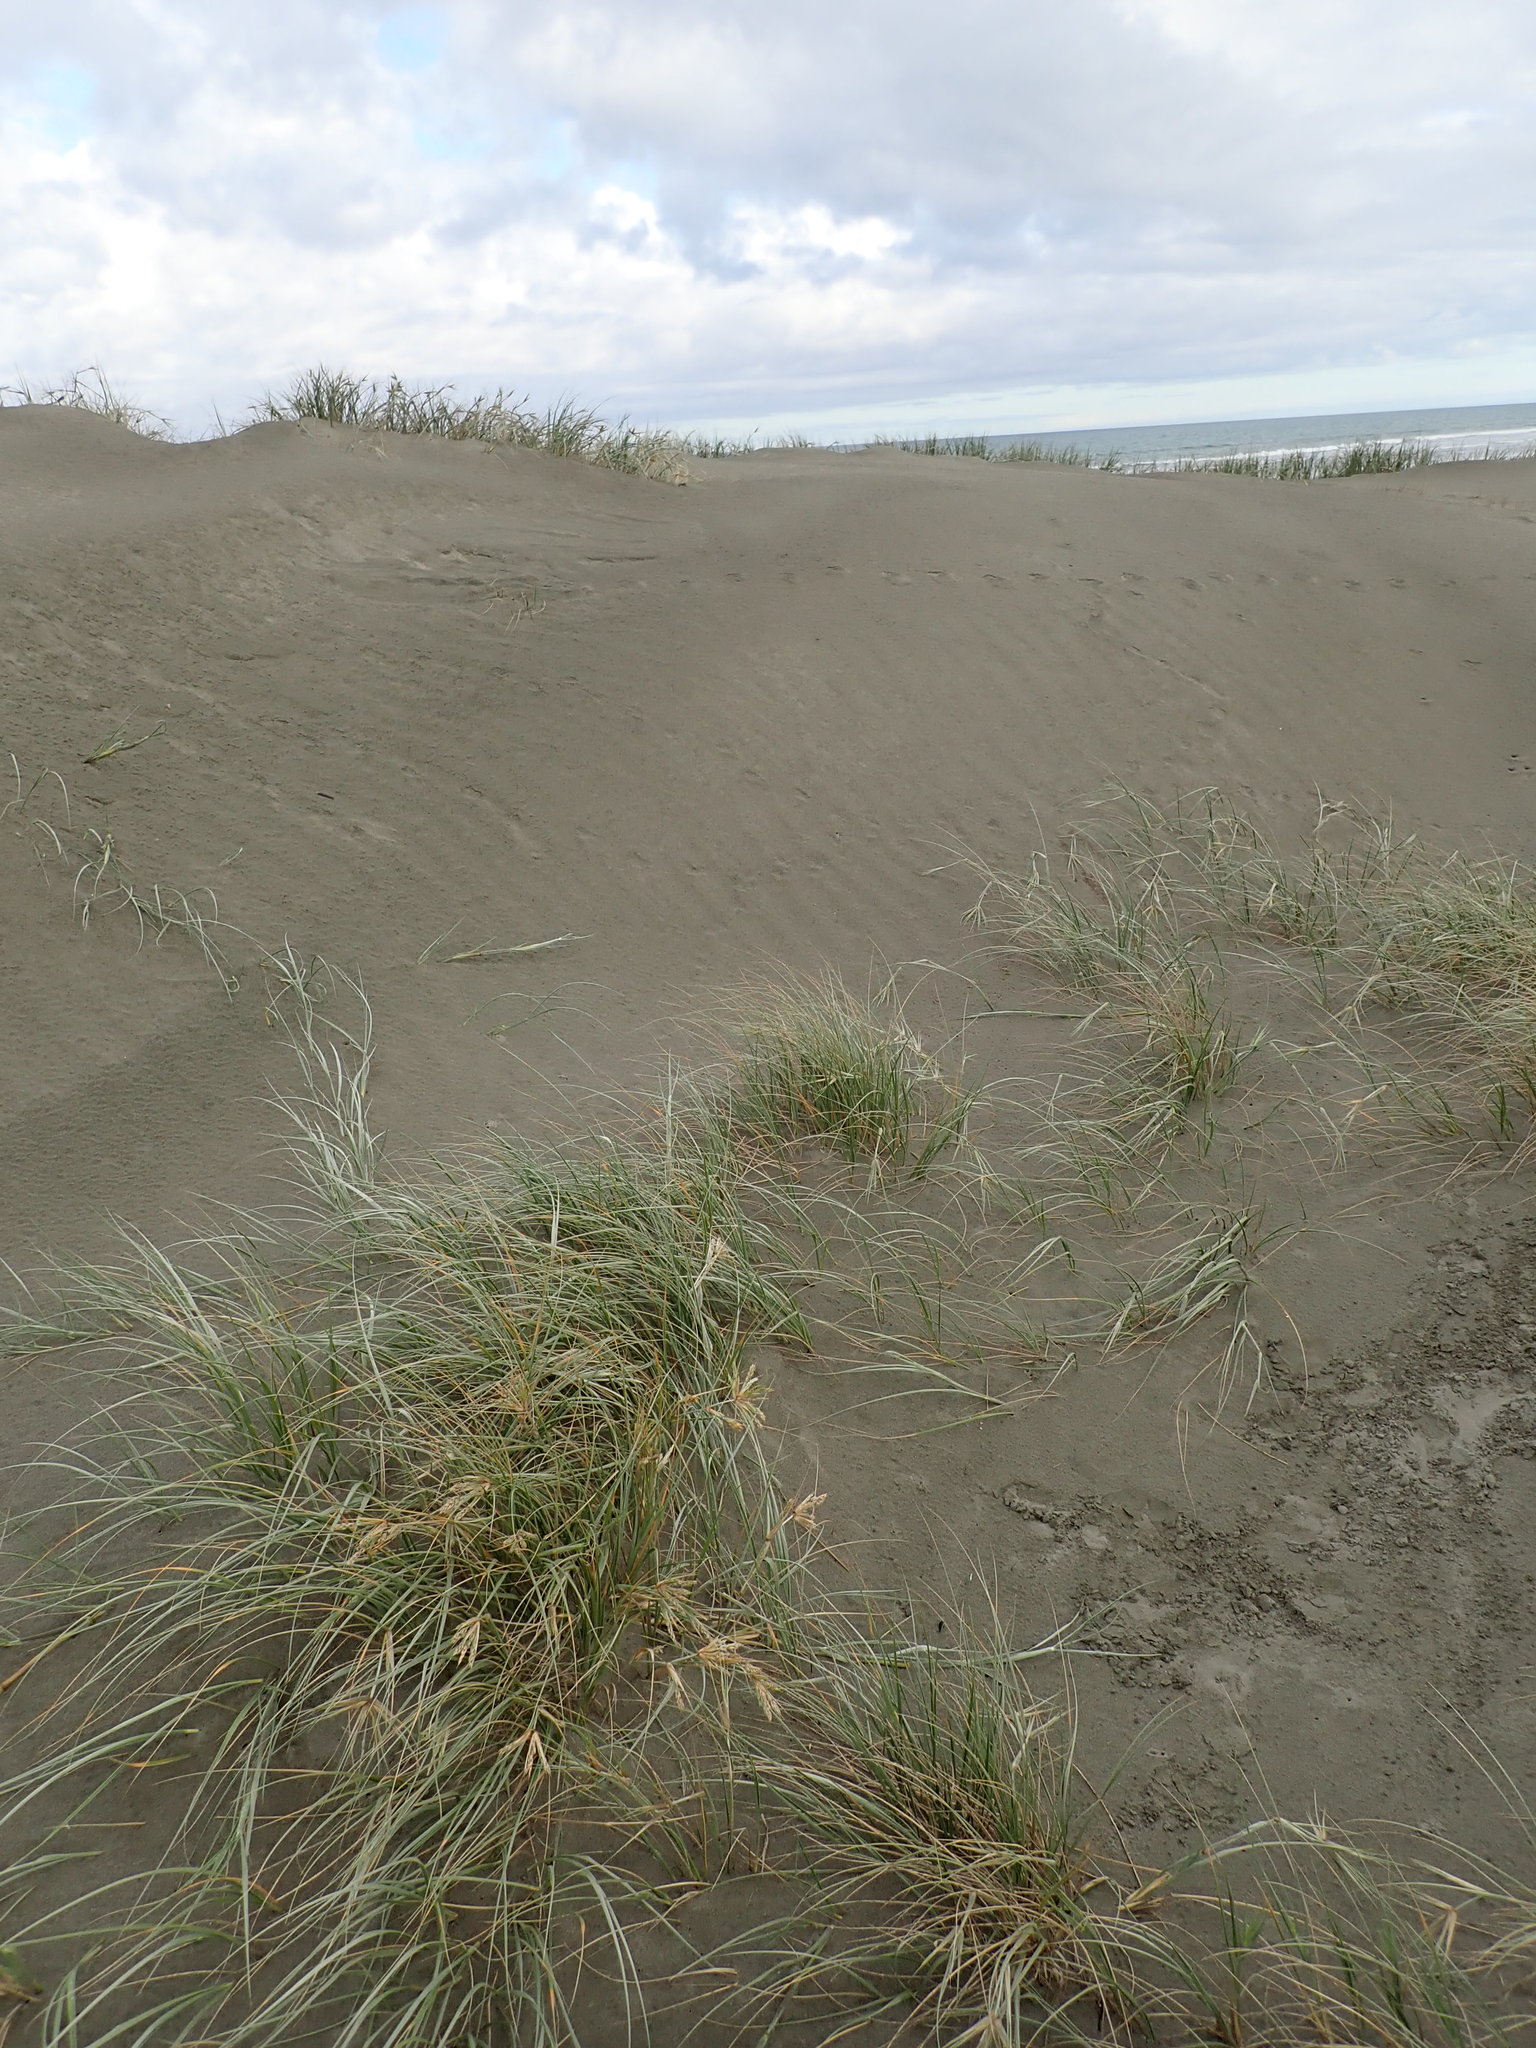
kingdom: Plantae
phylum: Tracheophyta
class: Liliopsida
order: Poales
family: Poaceae
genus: Spinifex
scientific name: Spinifex sericeus
